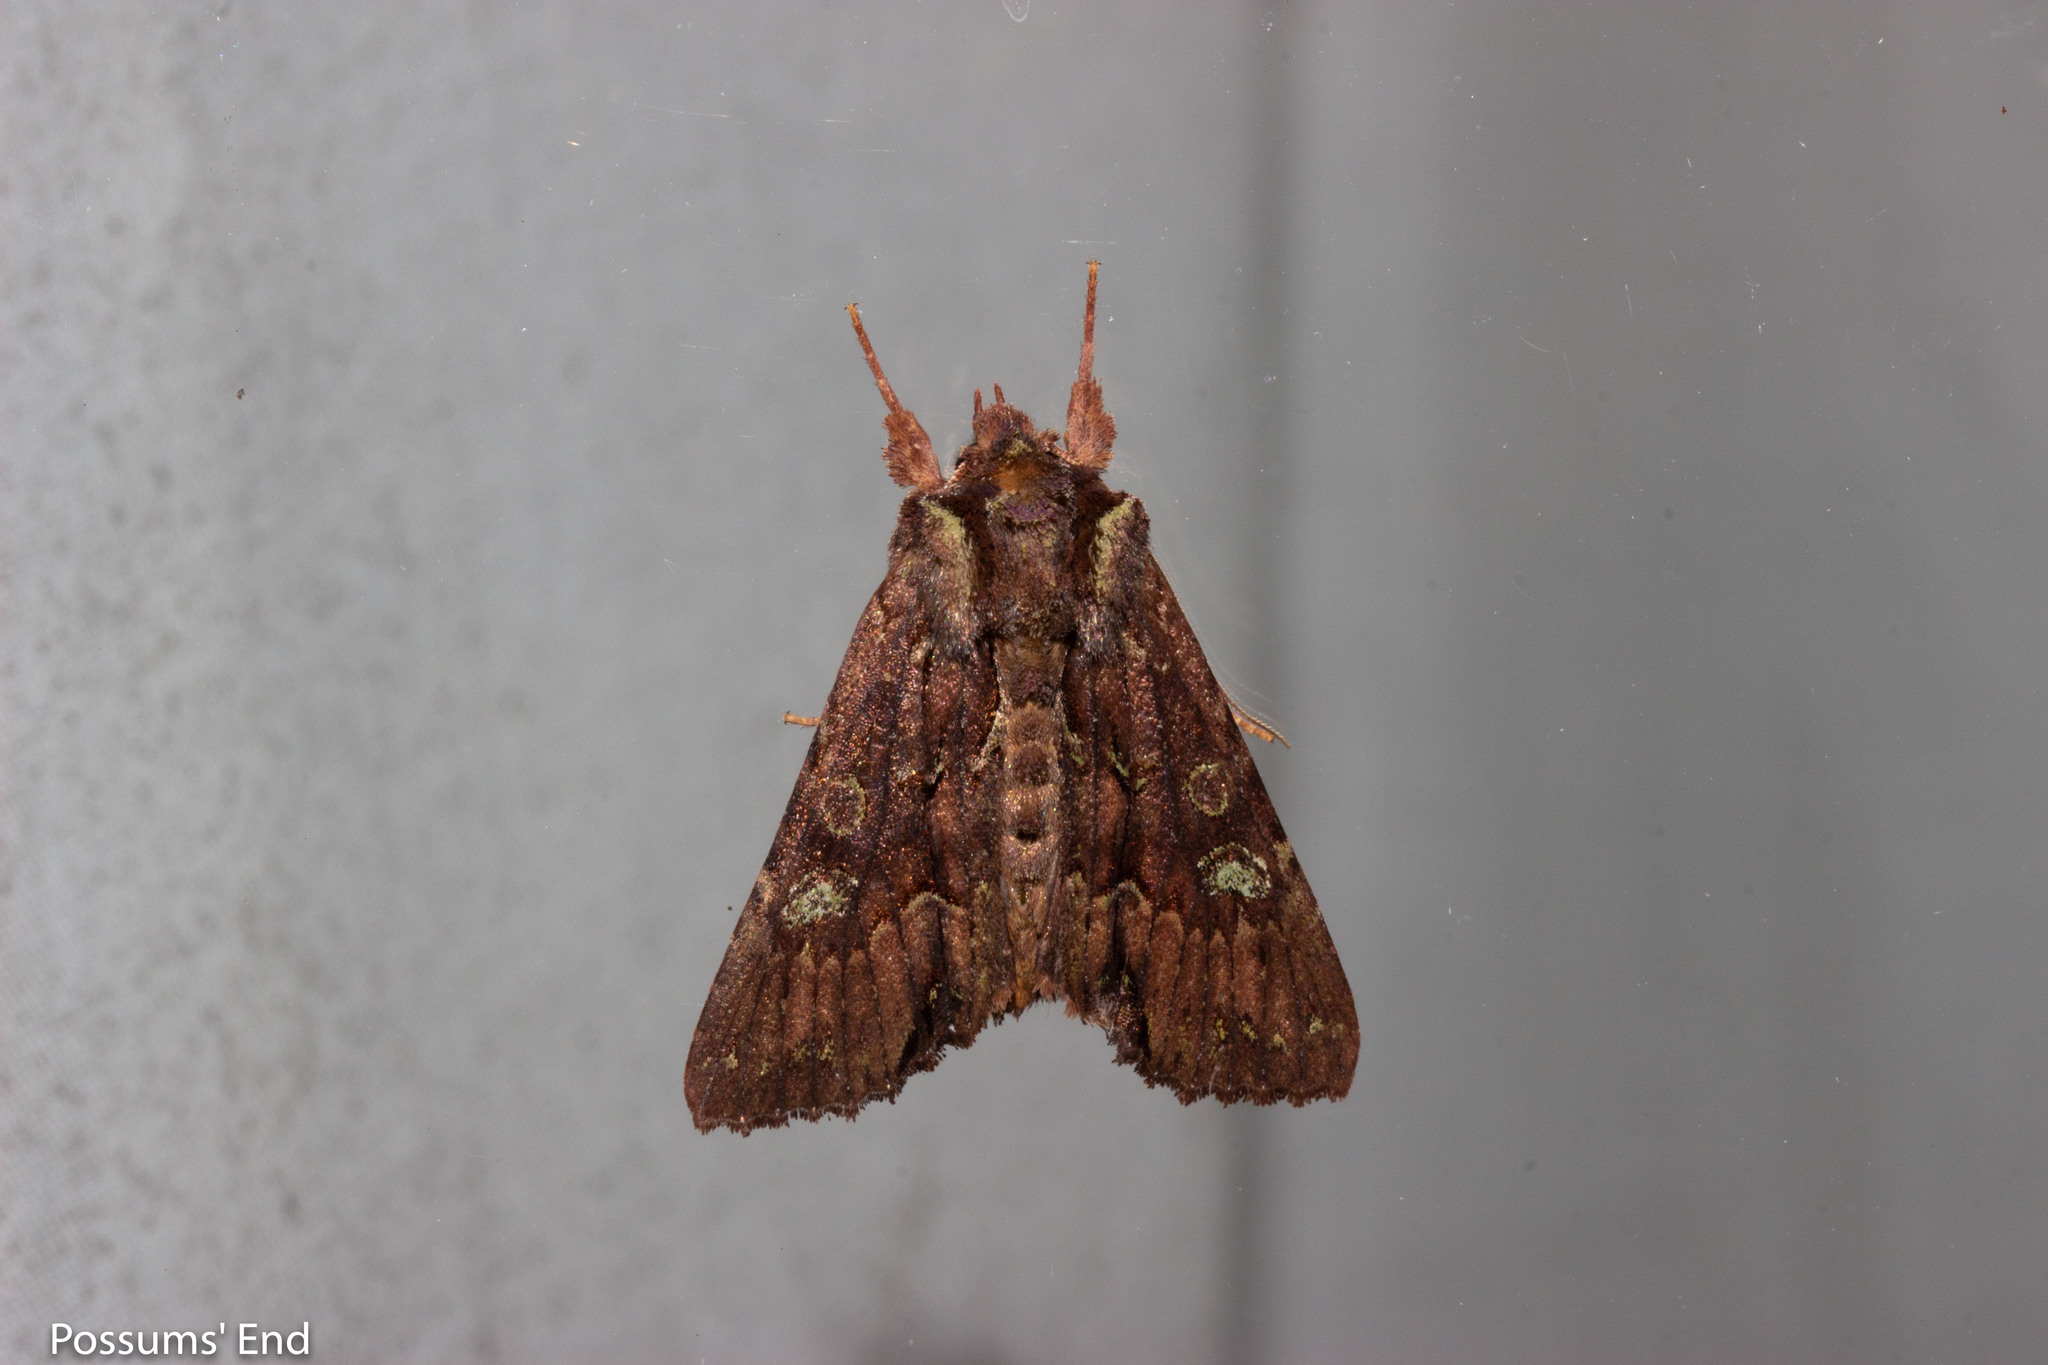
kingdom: Animalia
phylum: Arthropoda
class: Insecta
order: Lepidoptera
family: Noctuidae
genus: Meterana
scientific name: Meterana diatmeta
